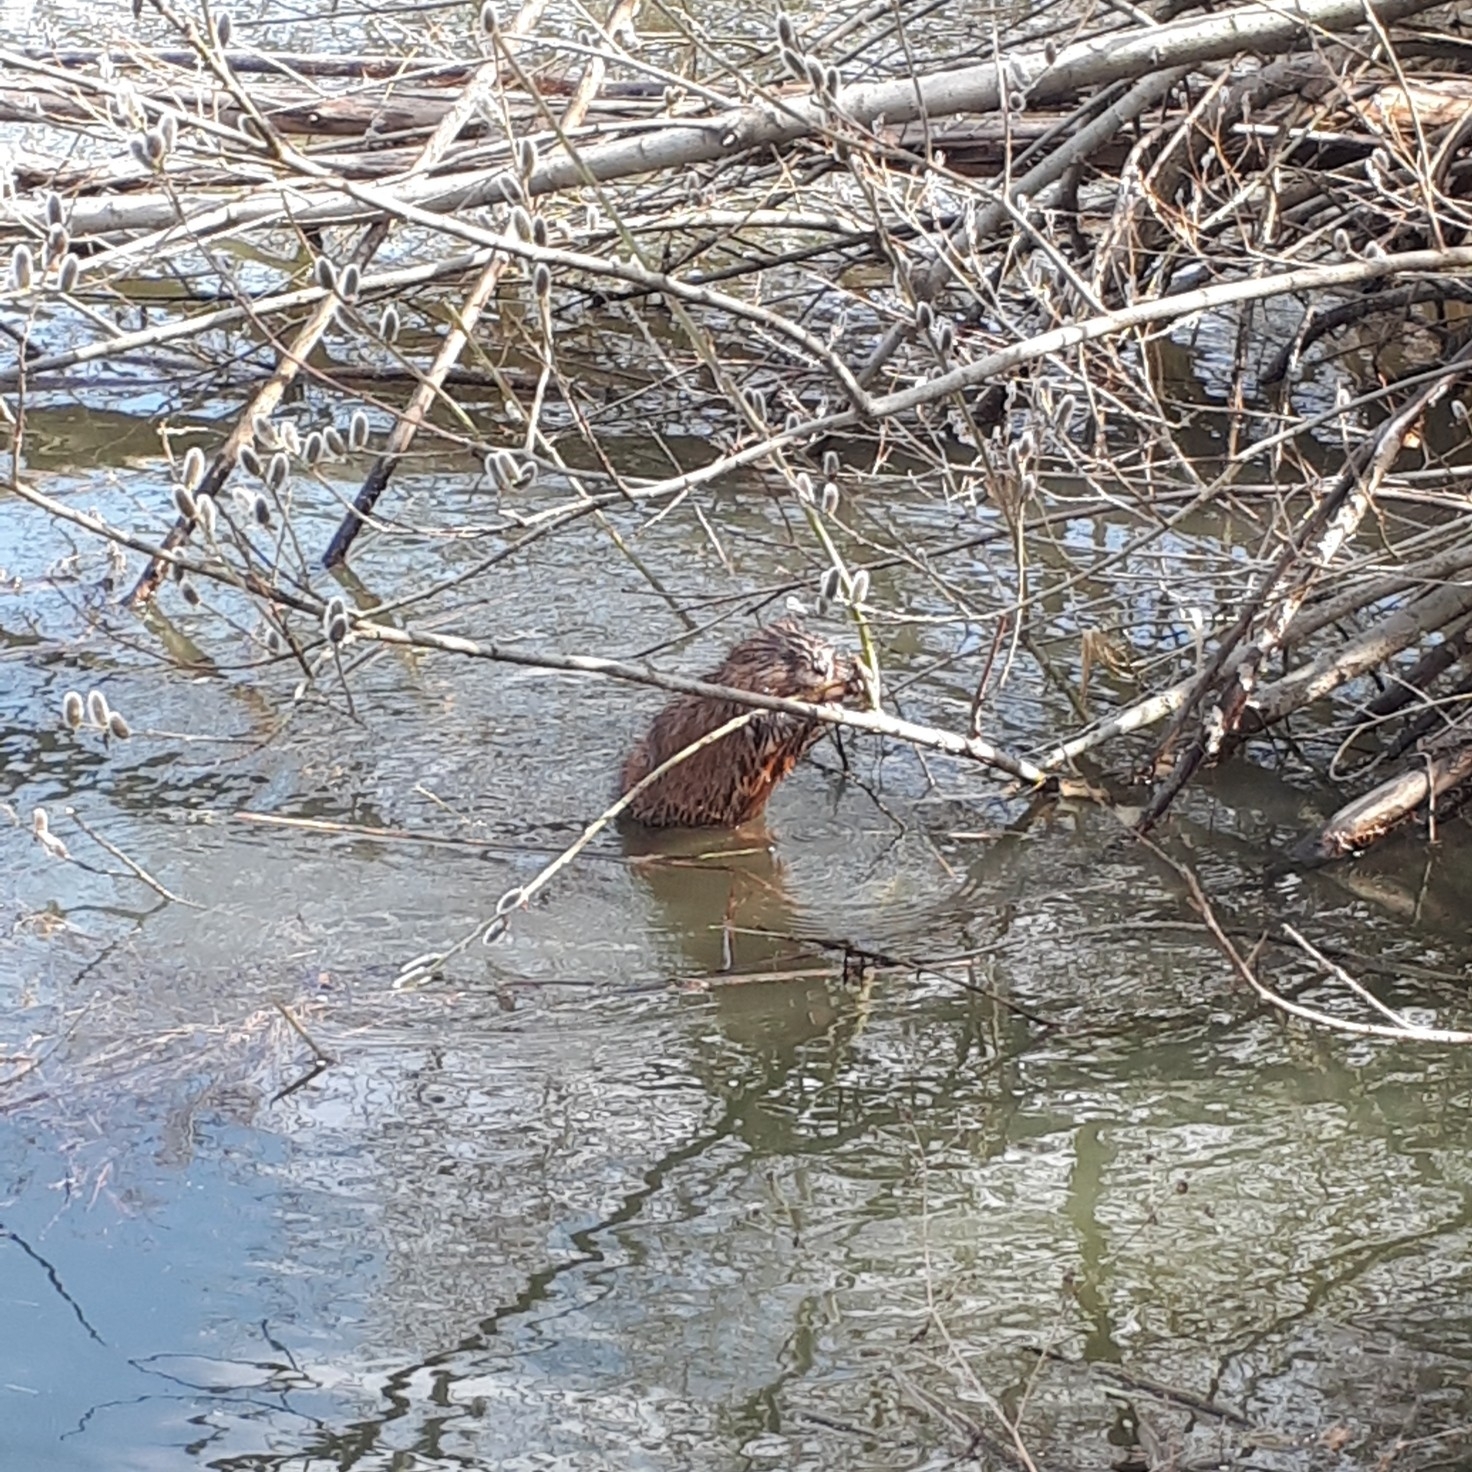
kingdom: Animalia
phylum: Chordata
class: Mammalia
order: Rodentia
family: Cricetidae
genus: Ondatra
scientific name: Ondatra zibethicus
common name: Muskrat
